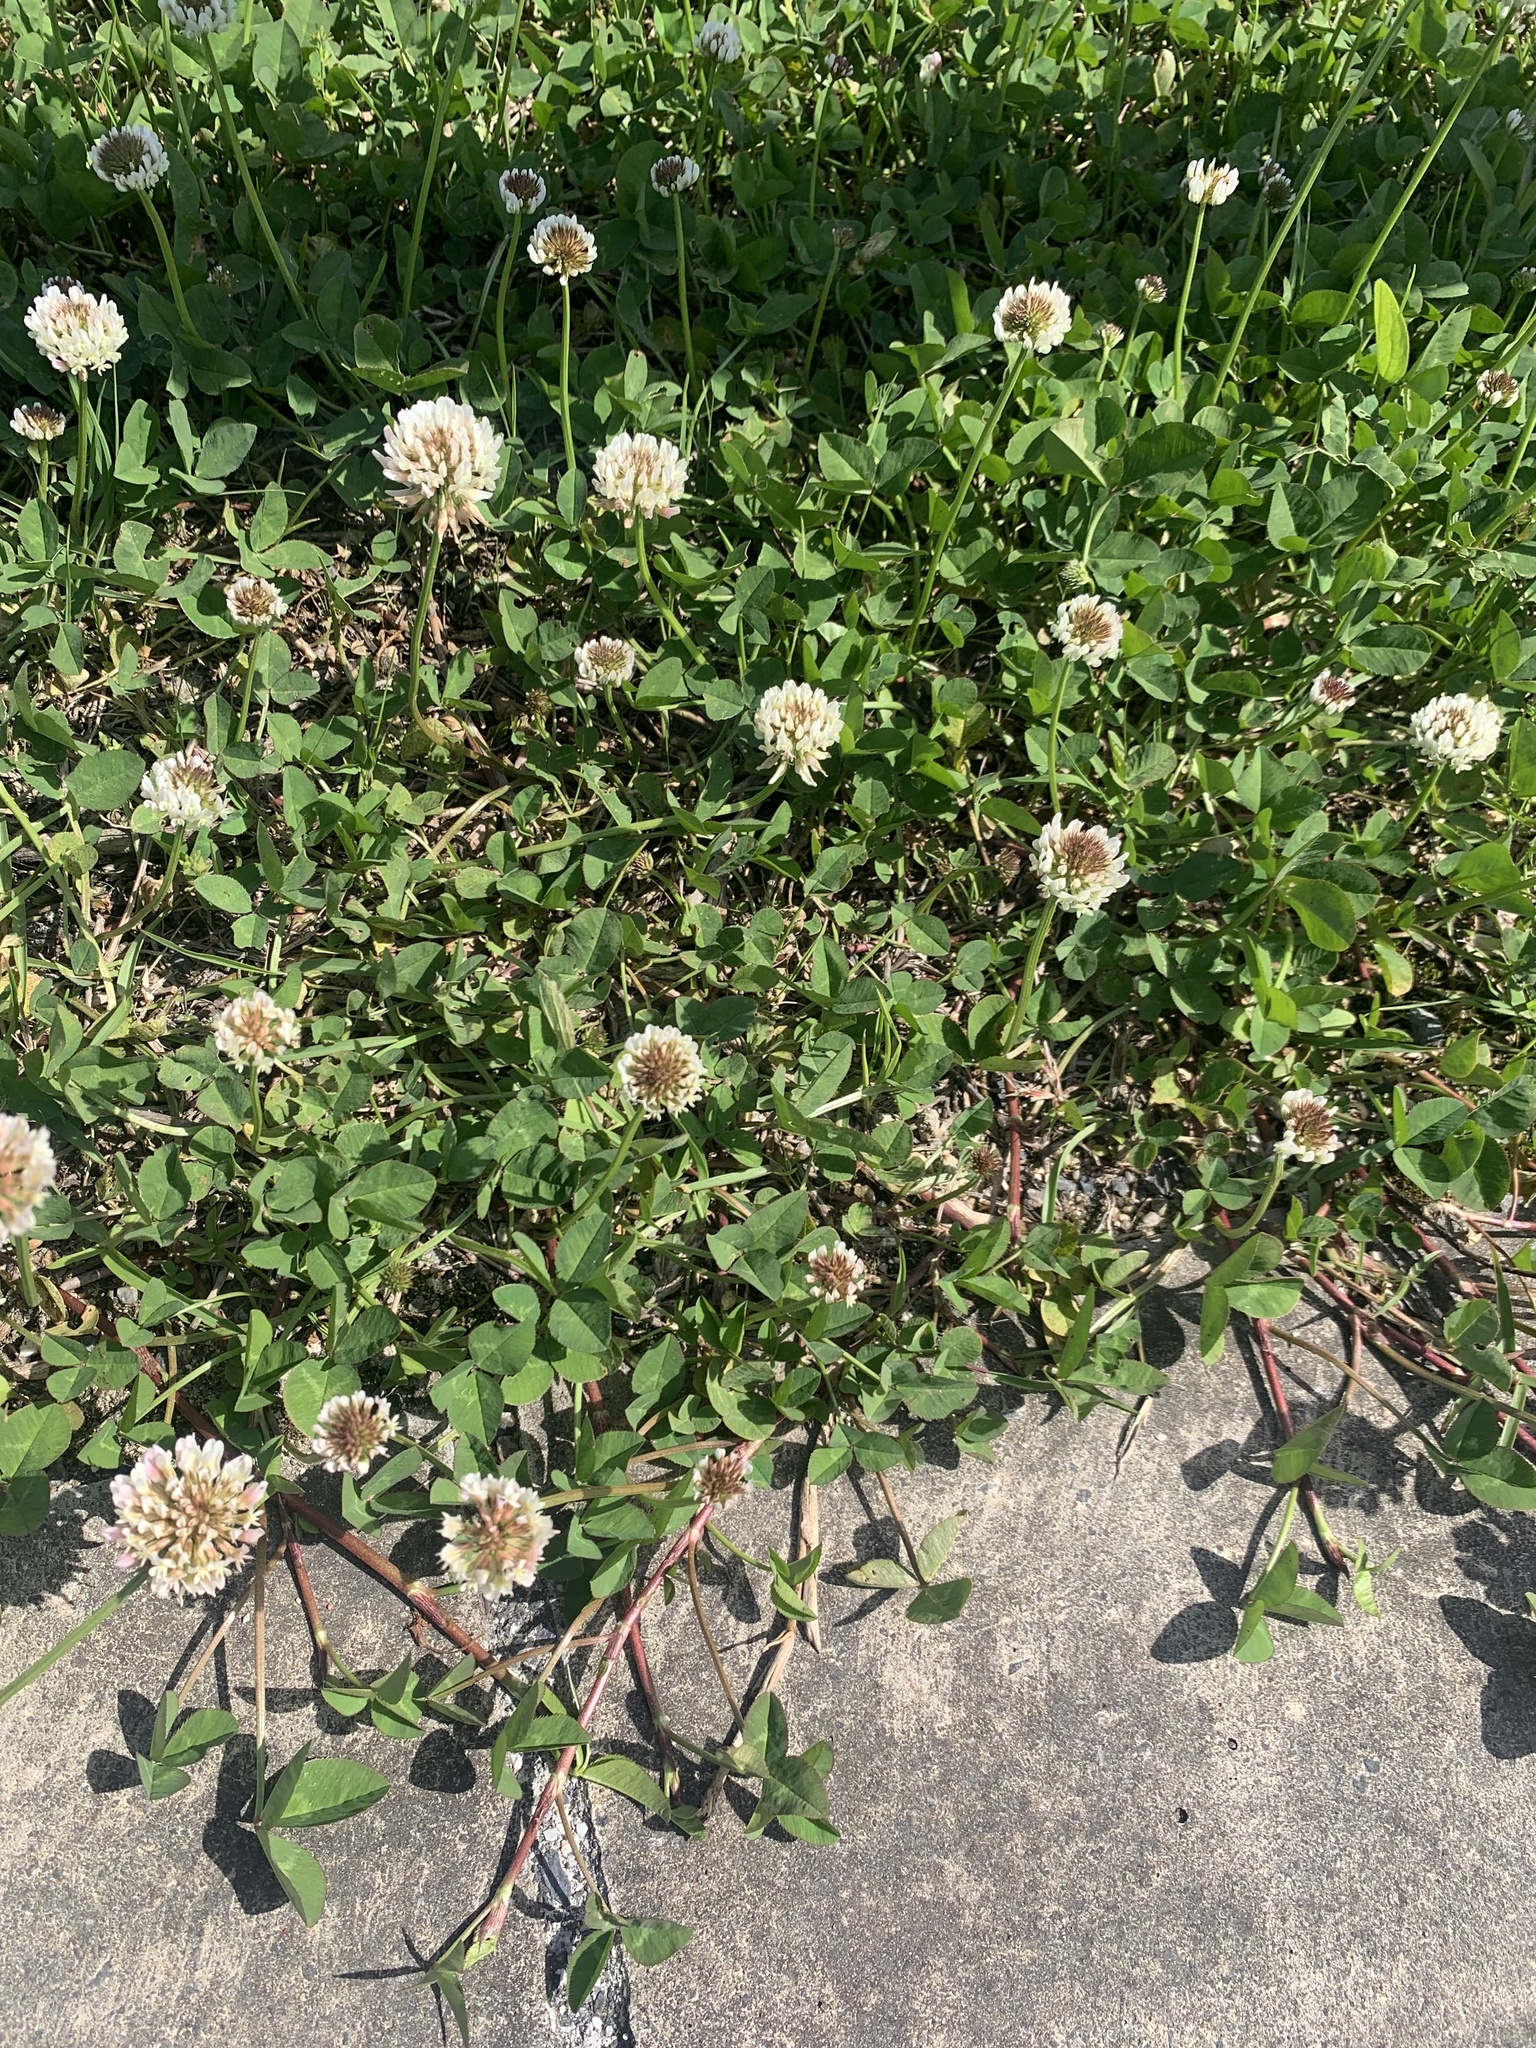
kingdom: Plantae
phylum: Tracheophyta
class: Magnoliopsida
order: Fabales
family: Fabaceae
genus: Trifolium
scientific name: Trifolium repens
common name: White clover
